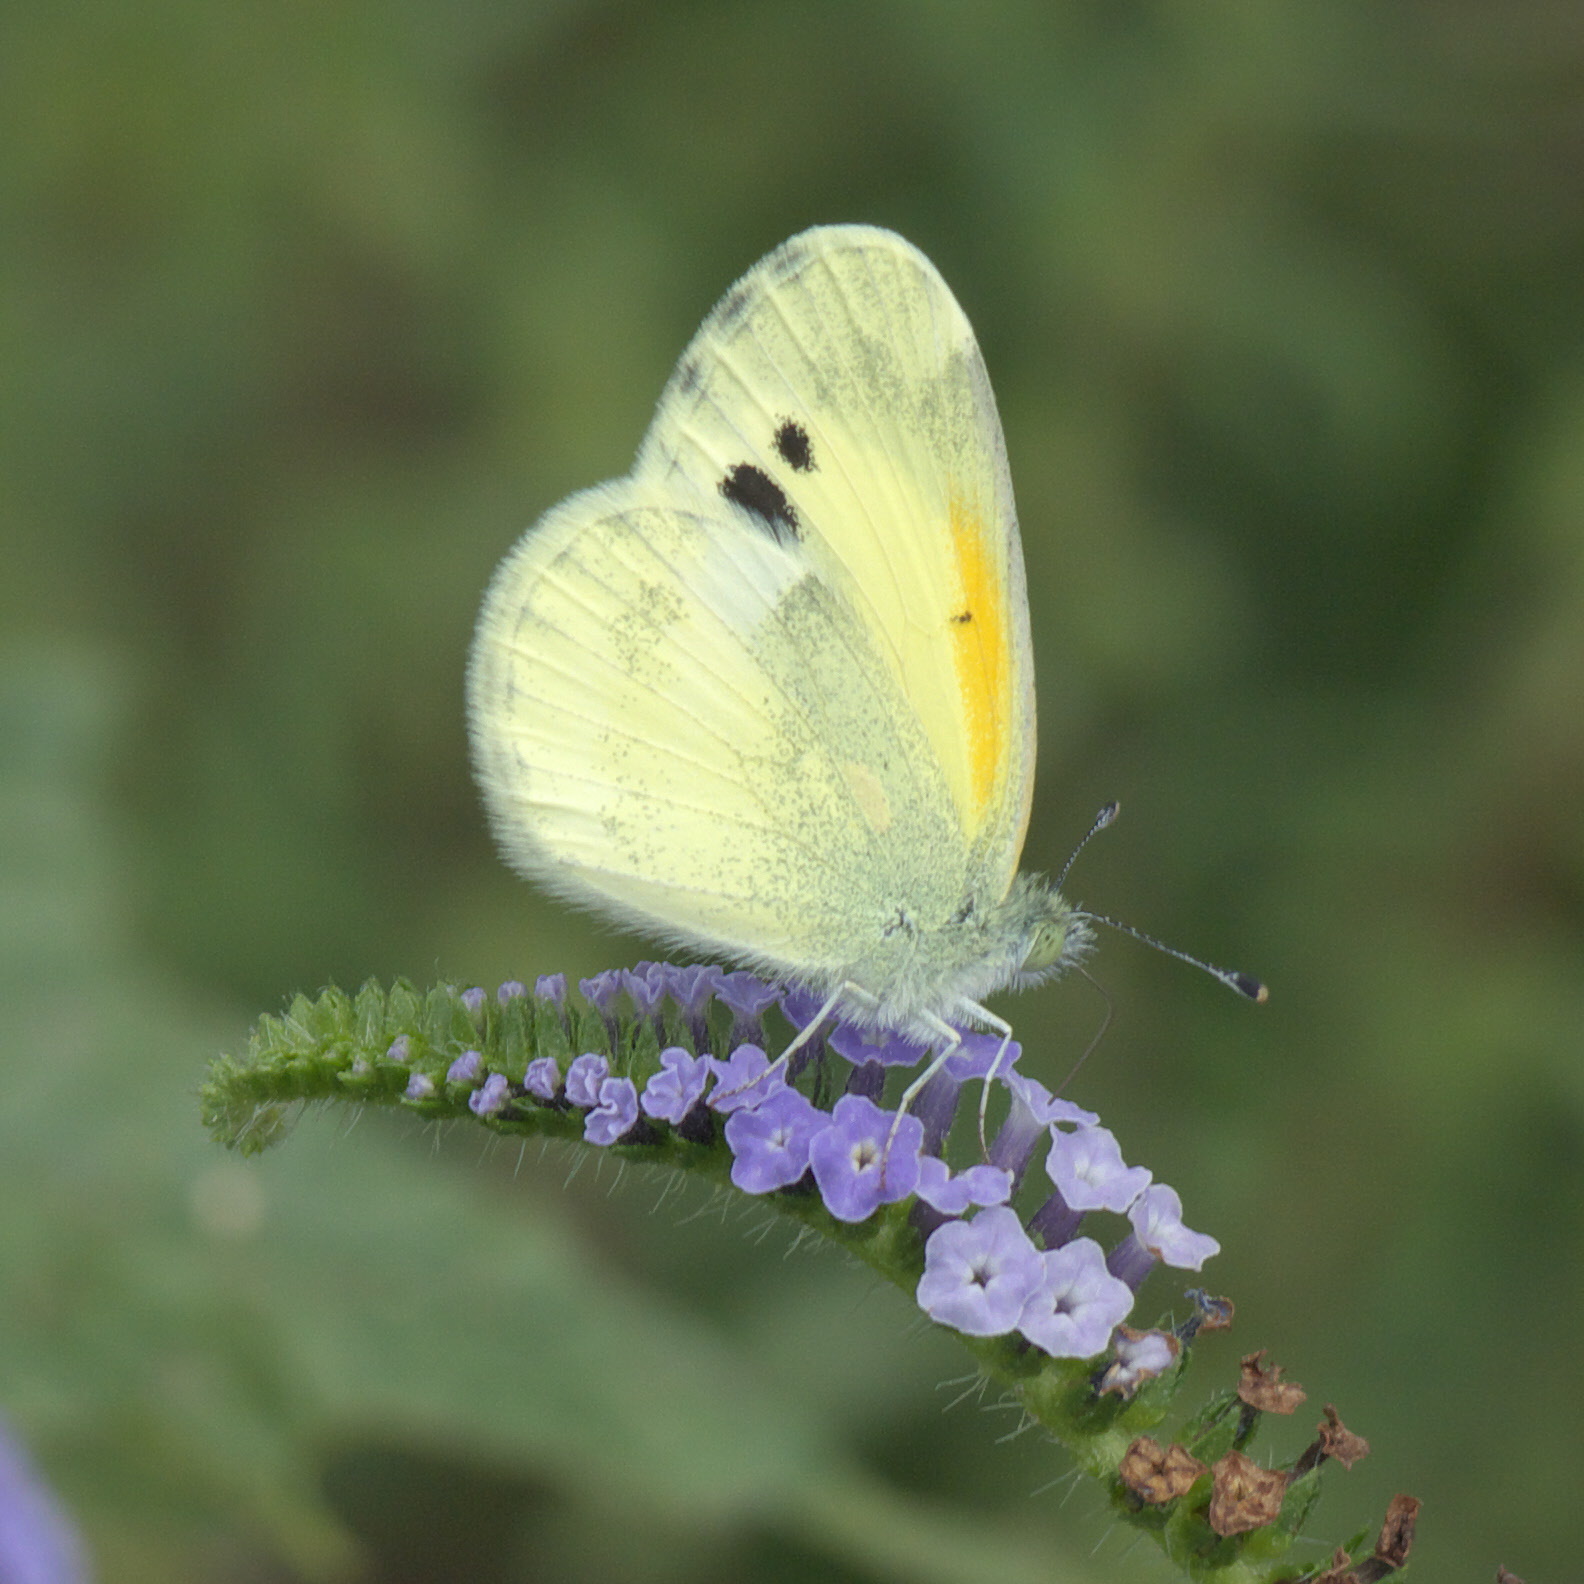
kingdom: Animalia
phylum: Arthropoda
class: Insecta
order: Lepidoptera
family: Pieridae
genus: Nathalis
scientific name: Nathalis iole
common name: Dainty sulphur
